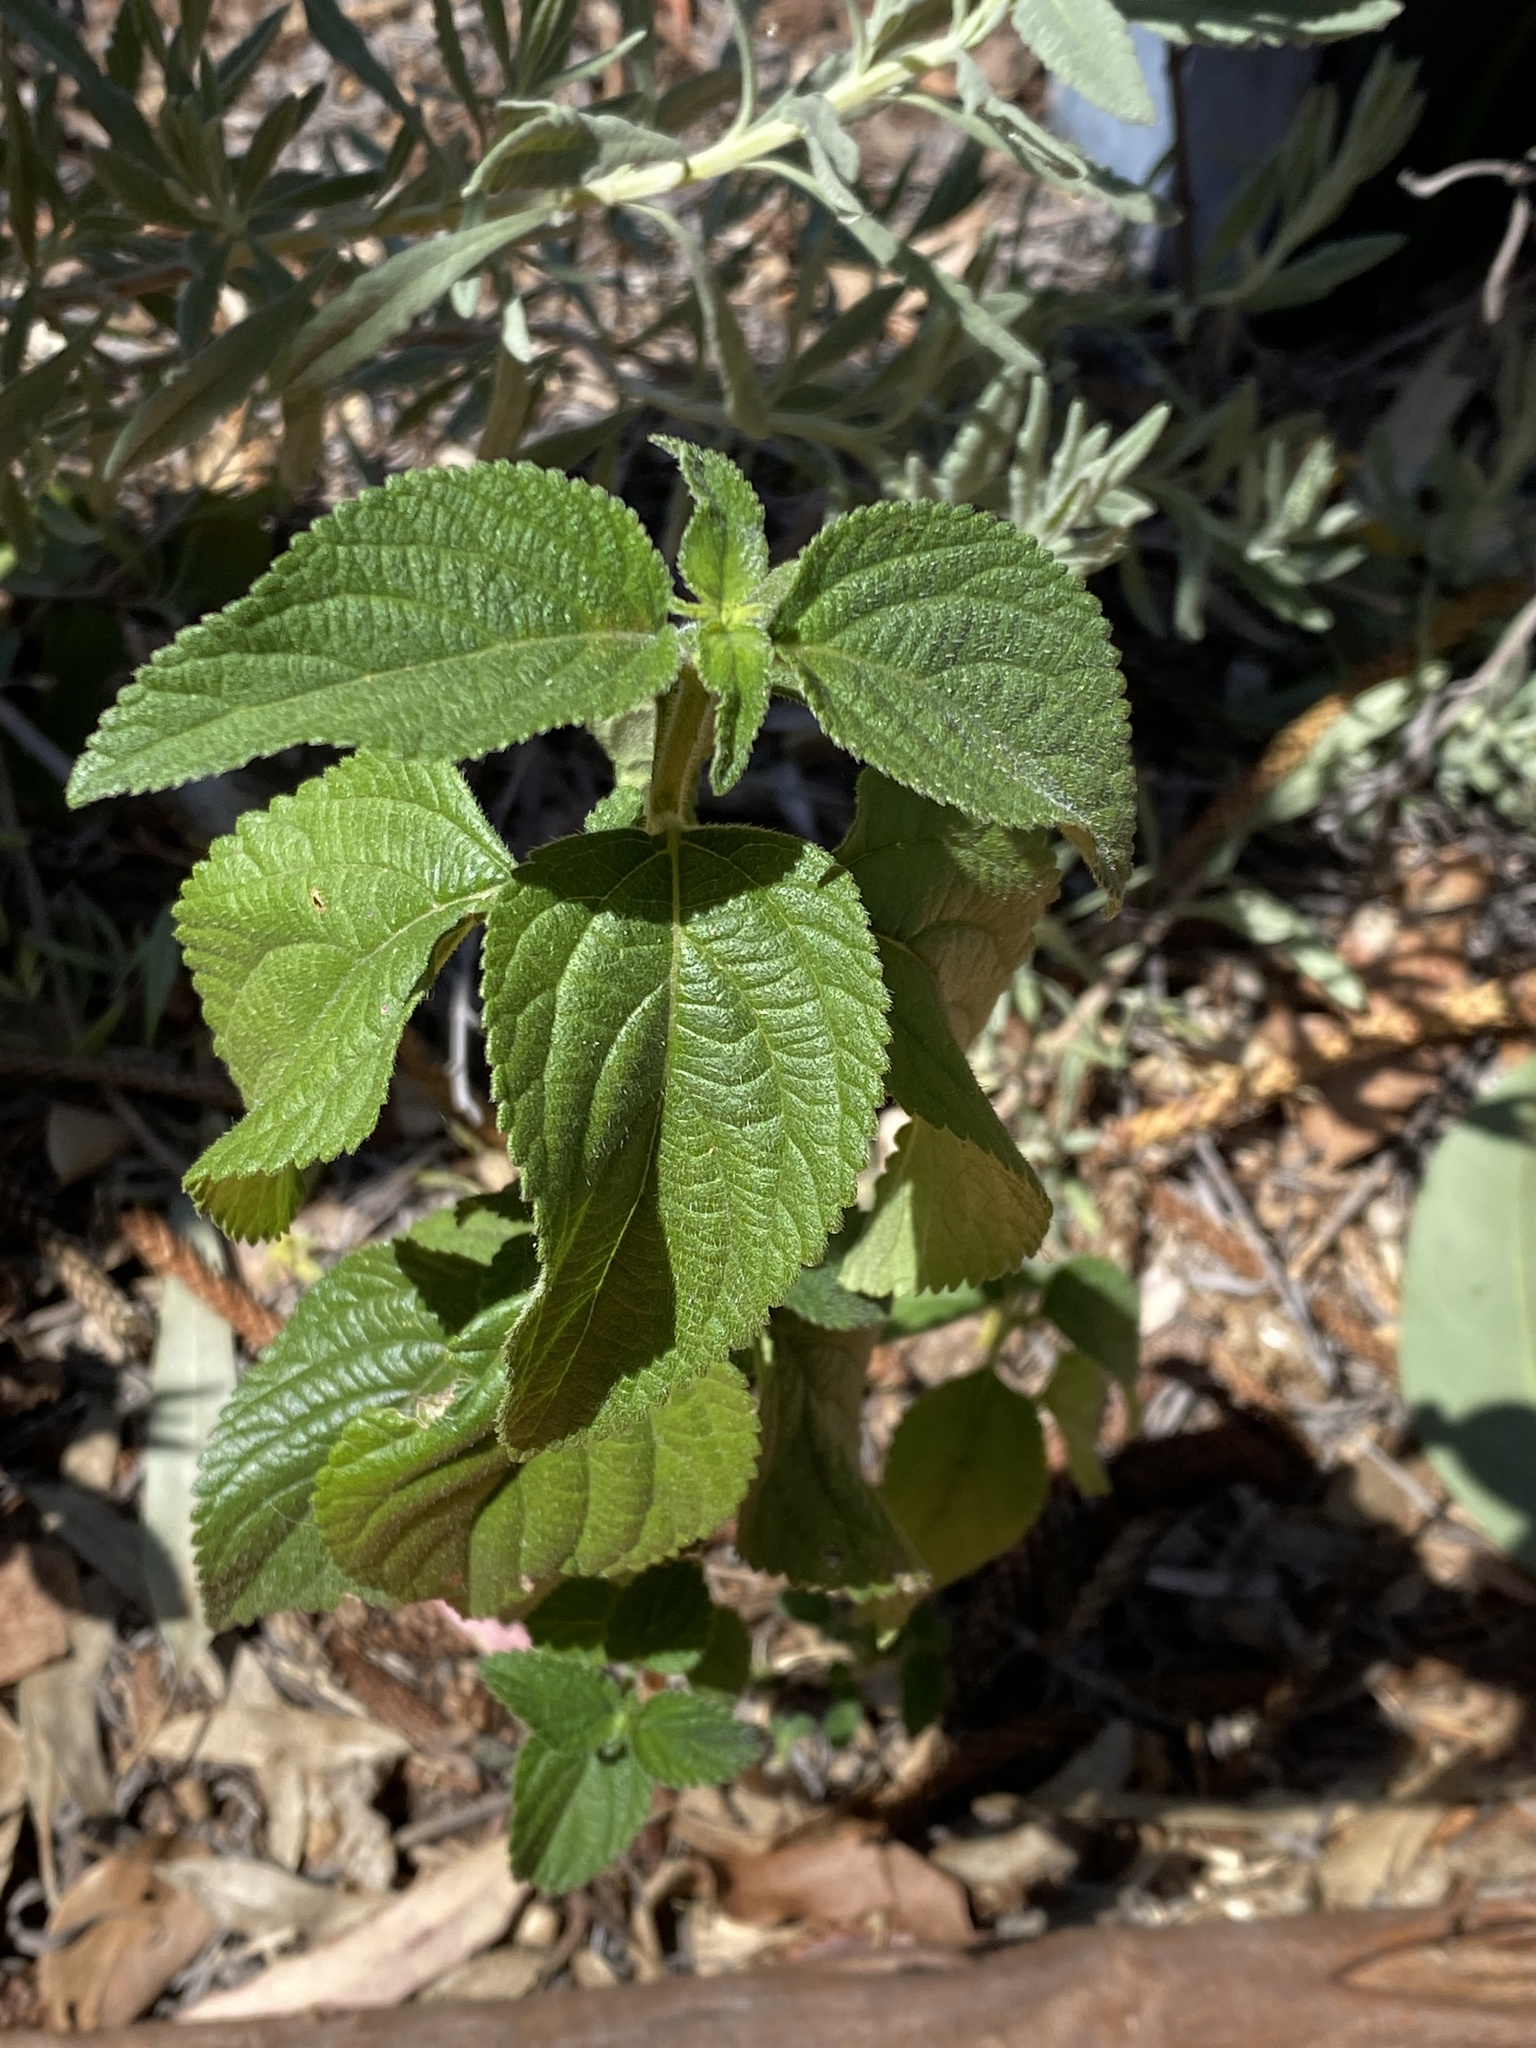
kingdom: Plantae
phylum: Tracheophyta
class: Magnoliopsida
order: Lamiales
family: Verbenaceae
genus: Lantana
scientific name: Lantana camara
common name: Lantana
